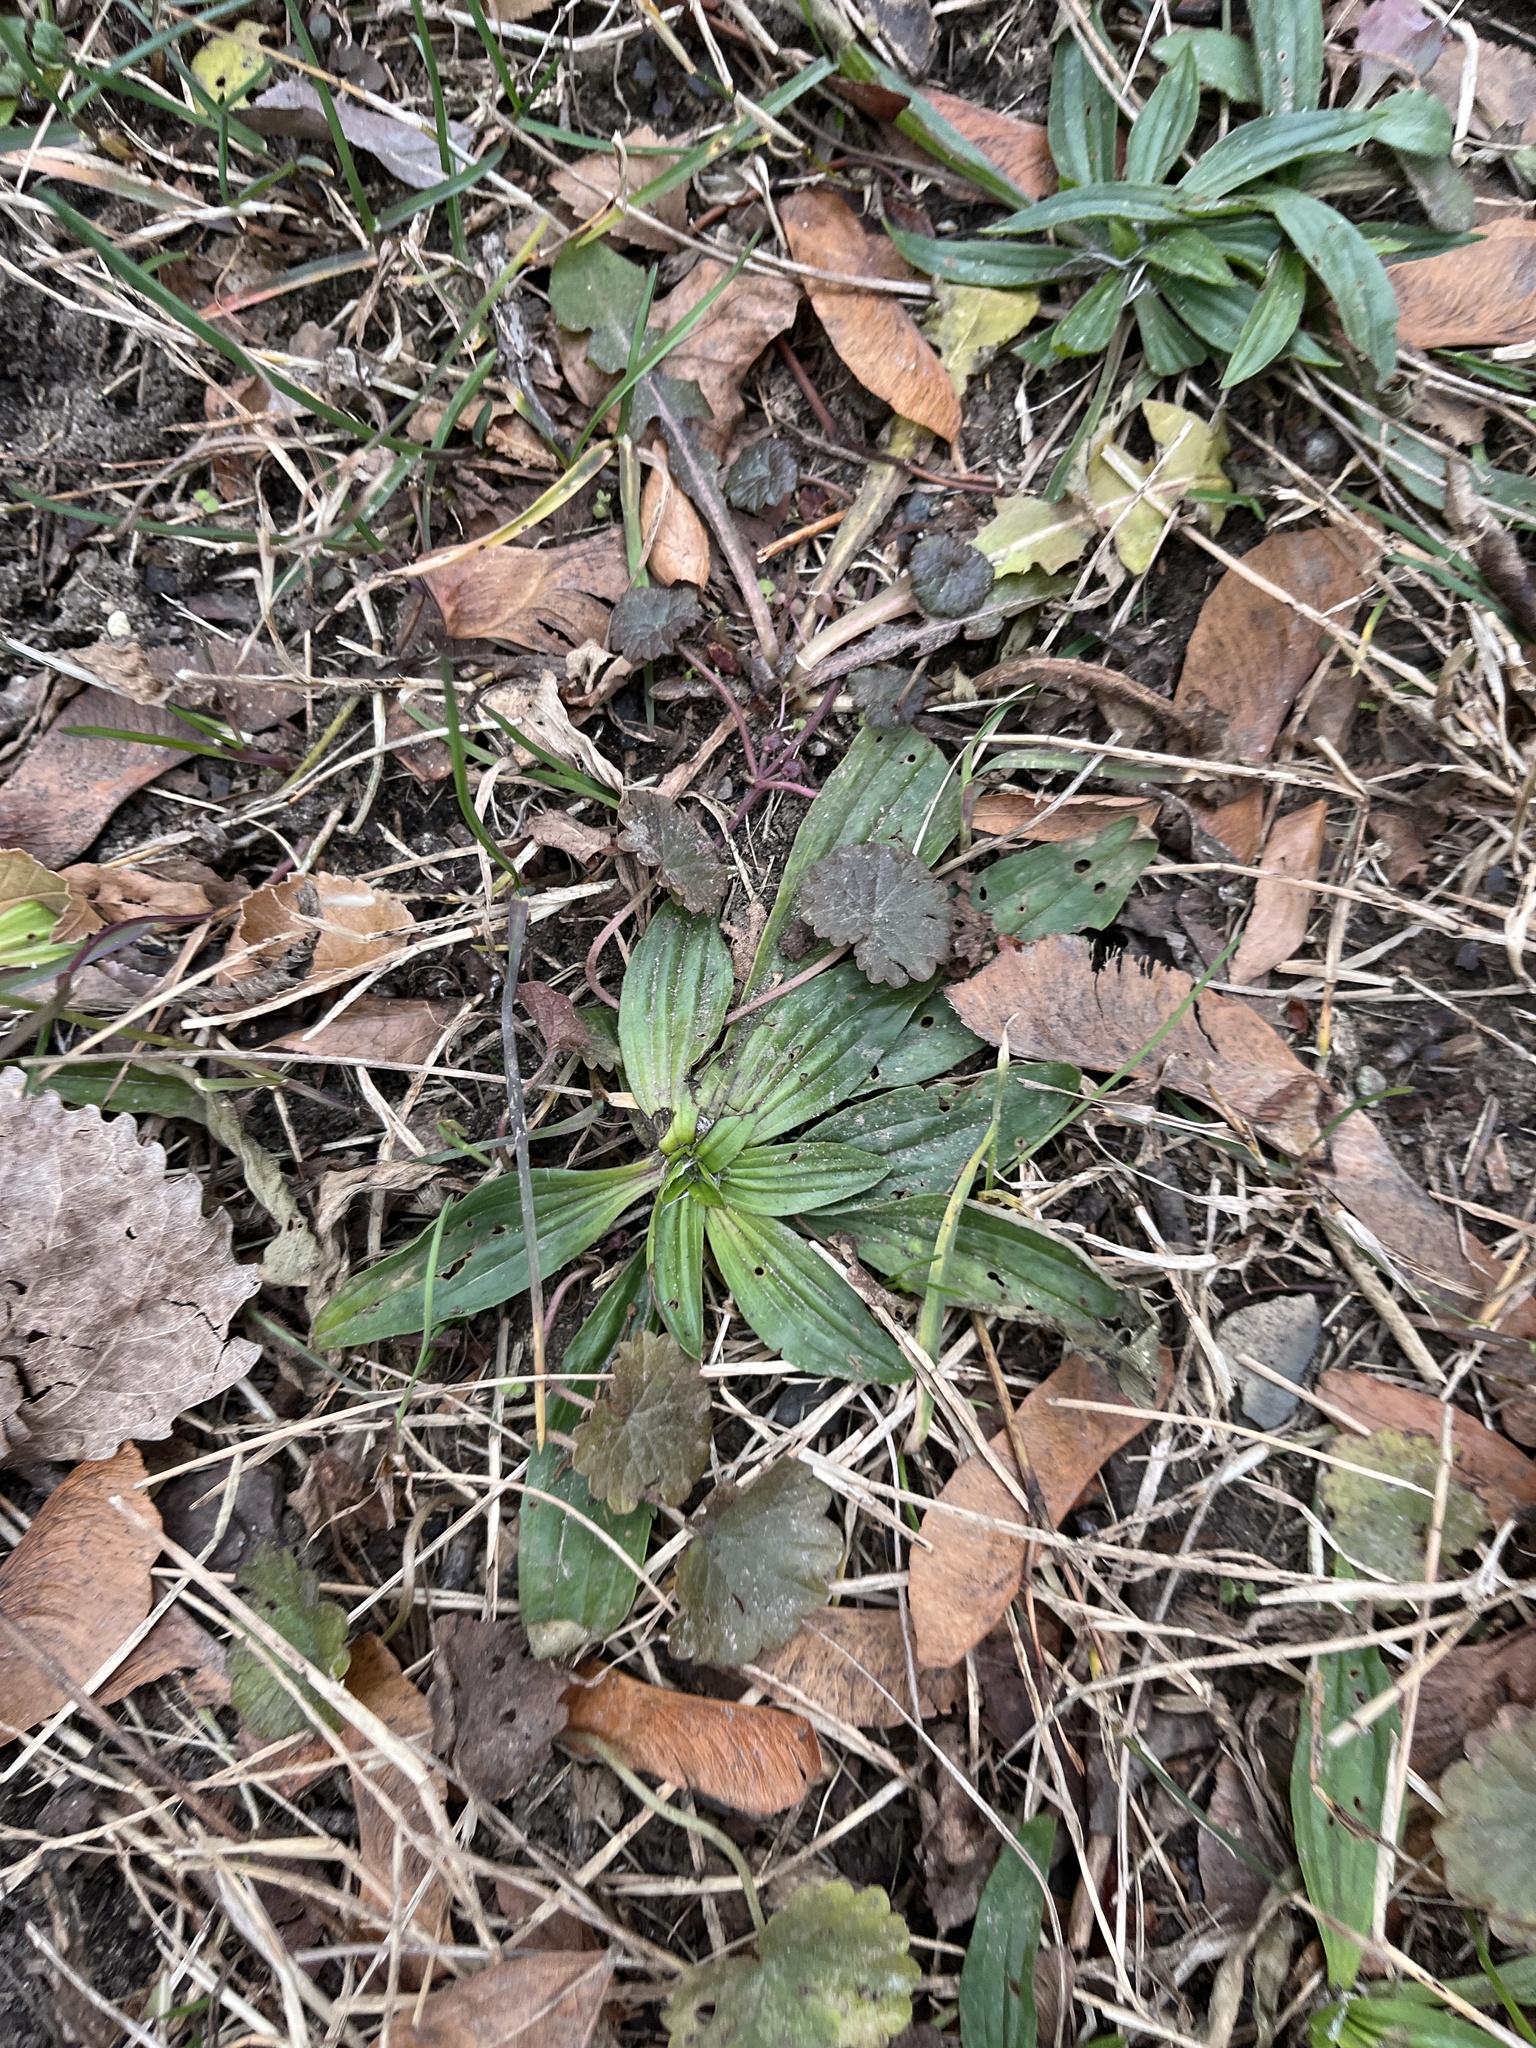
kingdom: Plantae
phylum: Tracheophyta
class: Magnoliopsida
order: Lamiales
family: Plantaginaceae
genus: Plantago
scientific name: Plantago lanceolata
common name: Ribwort plantain
